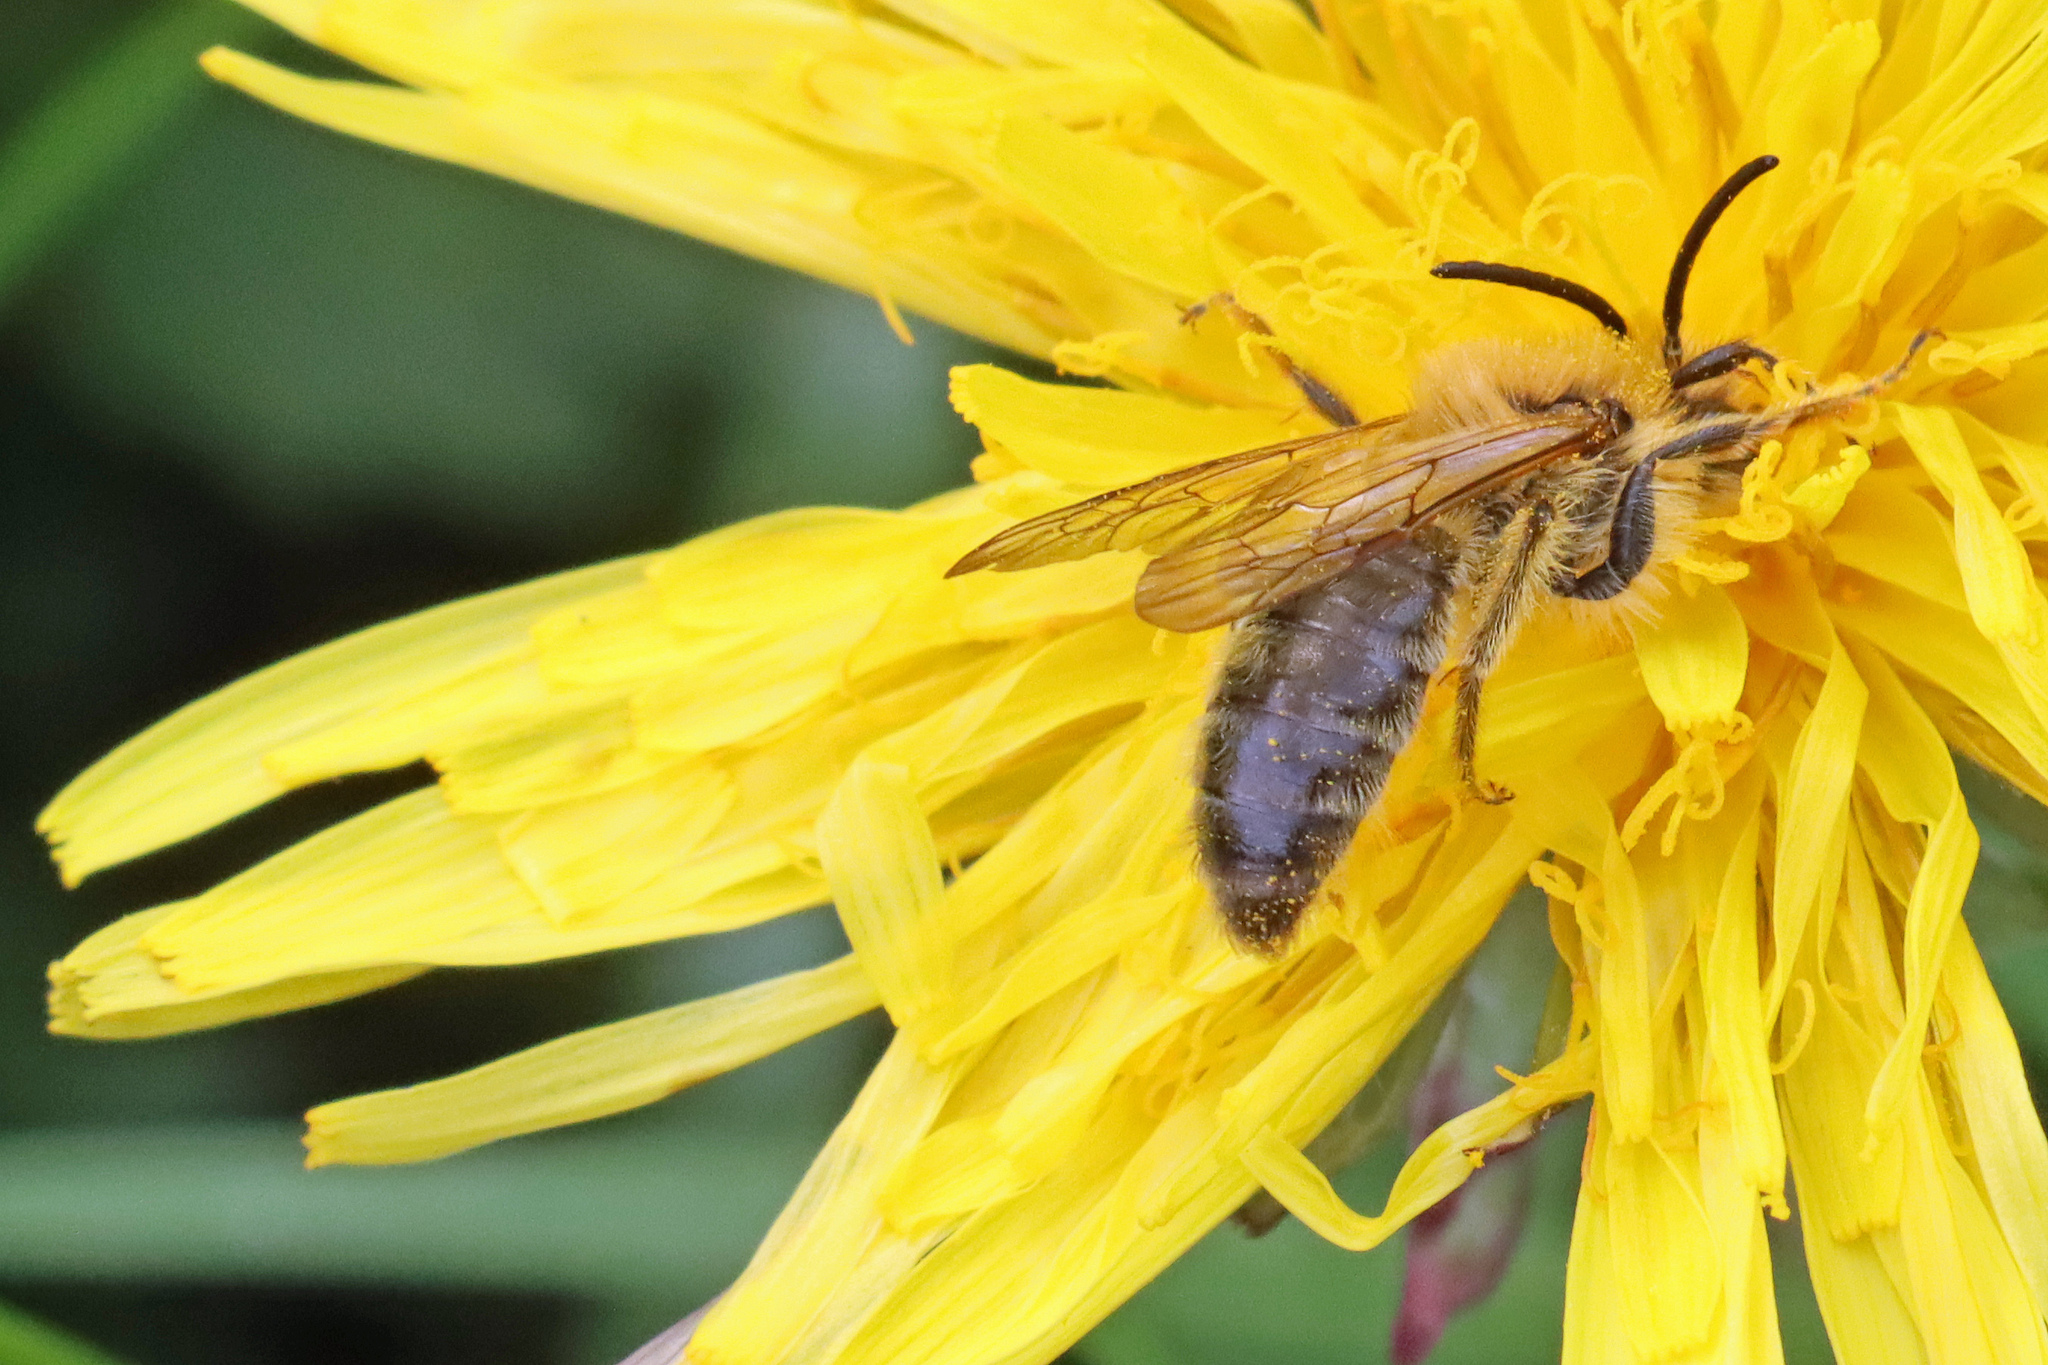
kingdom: Animalia
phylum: Arthropoda
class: Insecta
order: Hymenoptera
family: Andrenidae
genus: Andrena
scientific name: Andrena nitida
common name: Grey-patched mining bee
